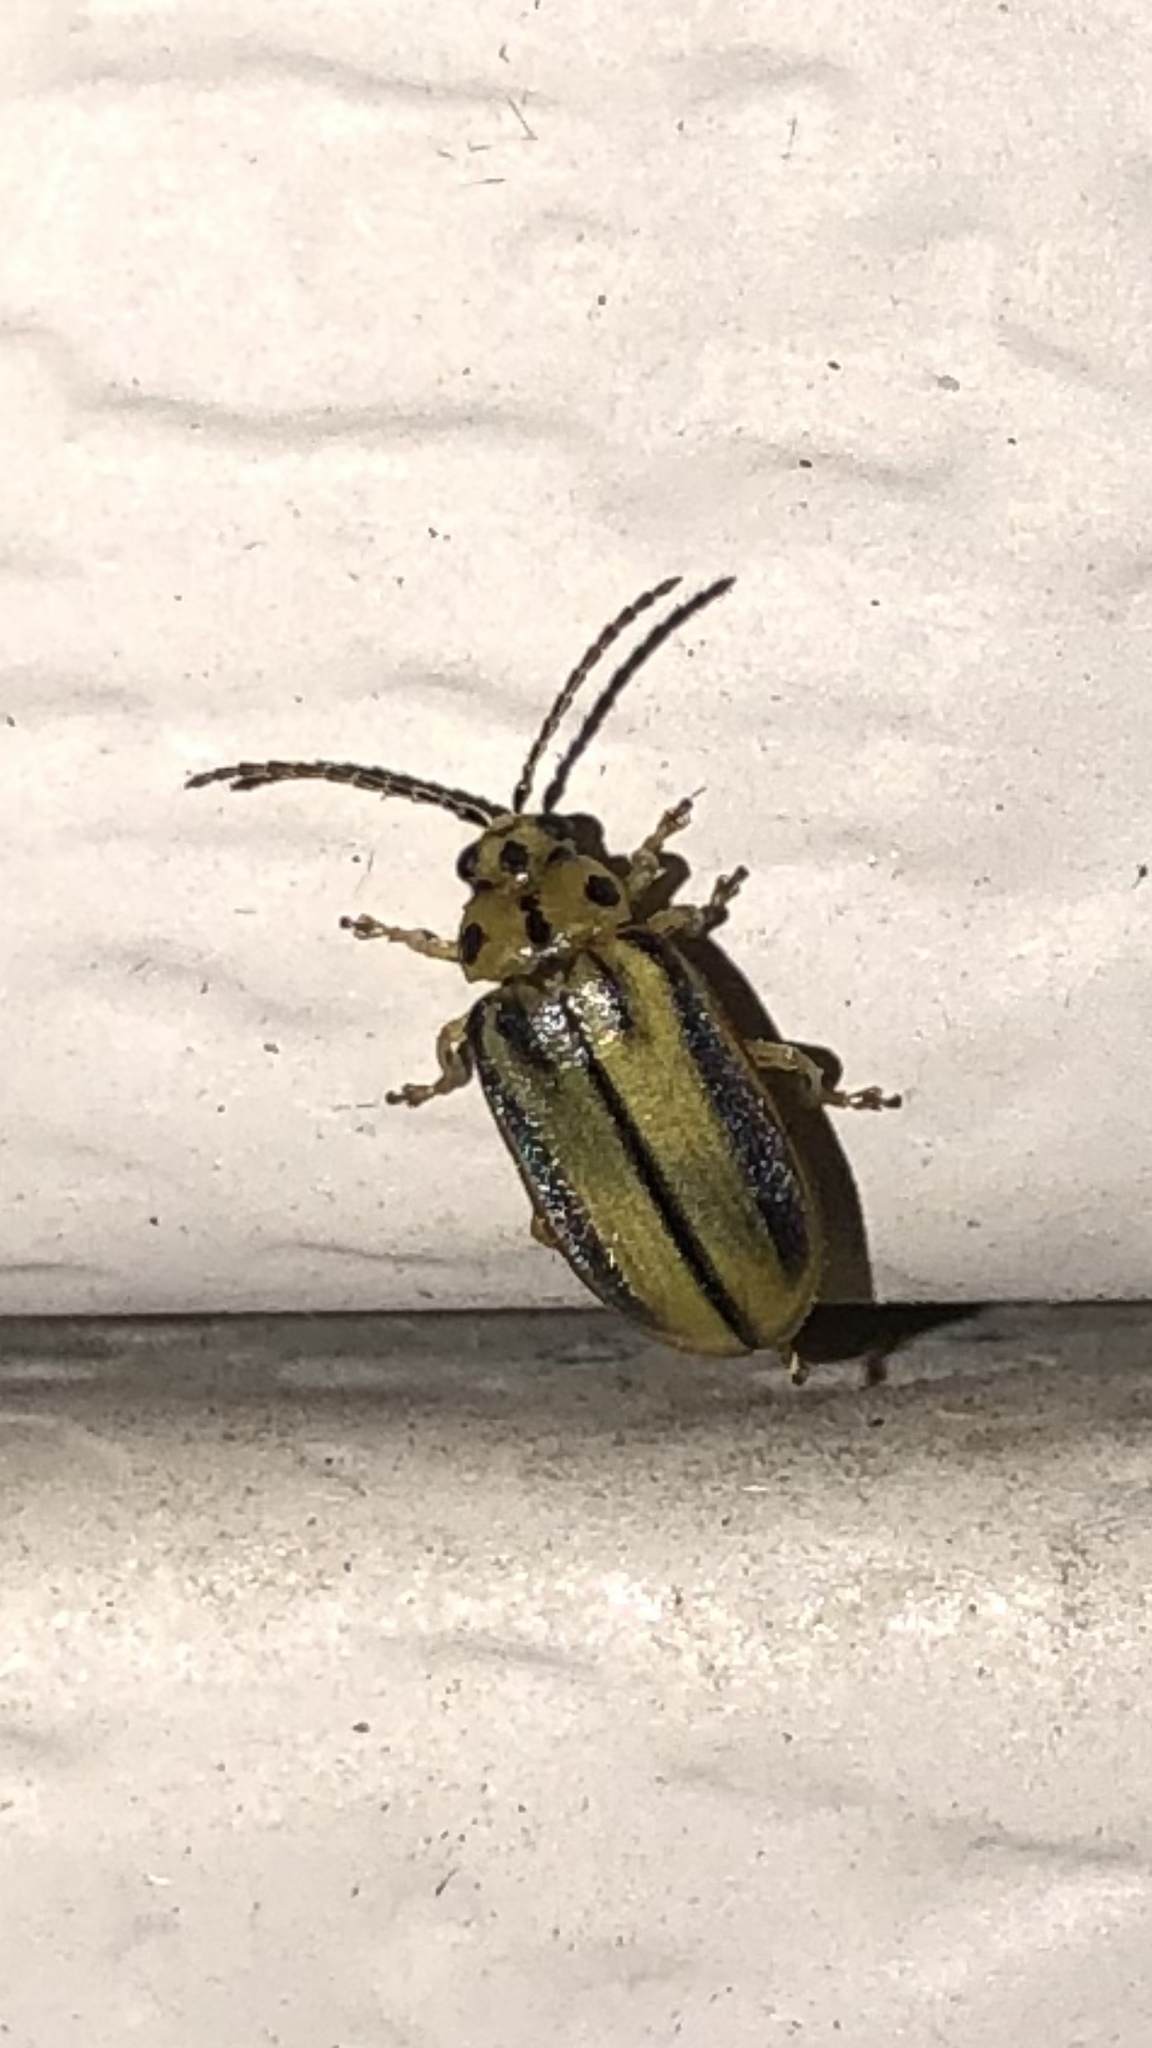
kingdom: Animalia
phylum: Arthropoda
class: Insecta
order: Coleoptera
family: Chrysomelidae
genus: Xanthogaleruca
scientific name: Xanthogaleruca luteola
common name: Elm leaf beetle
